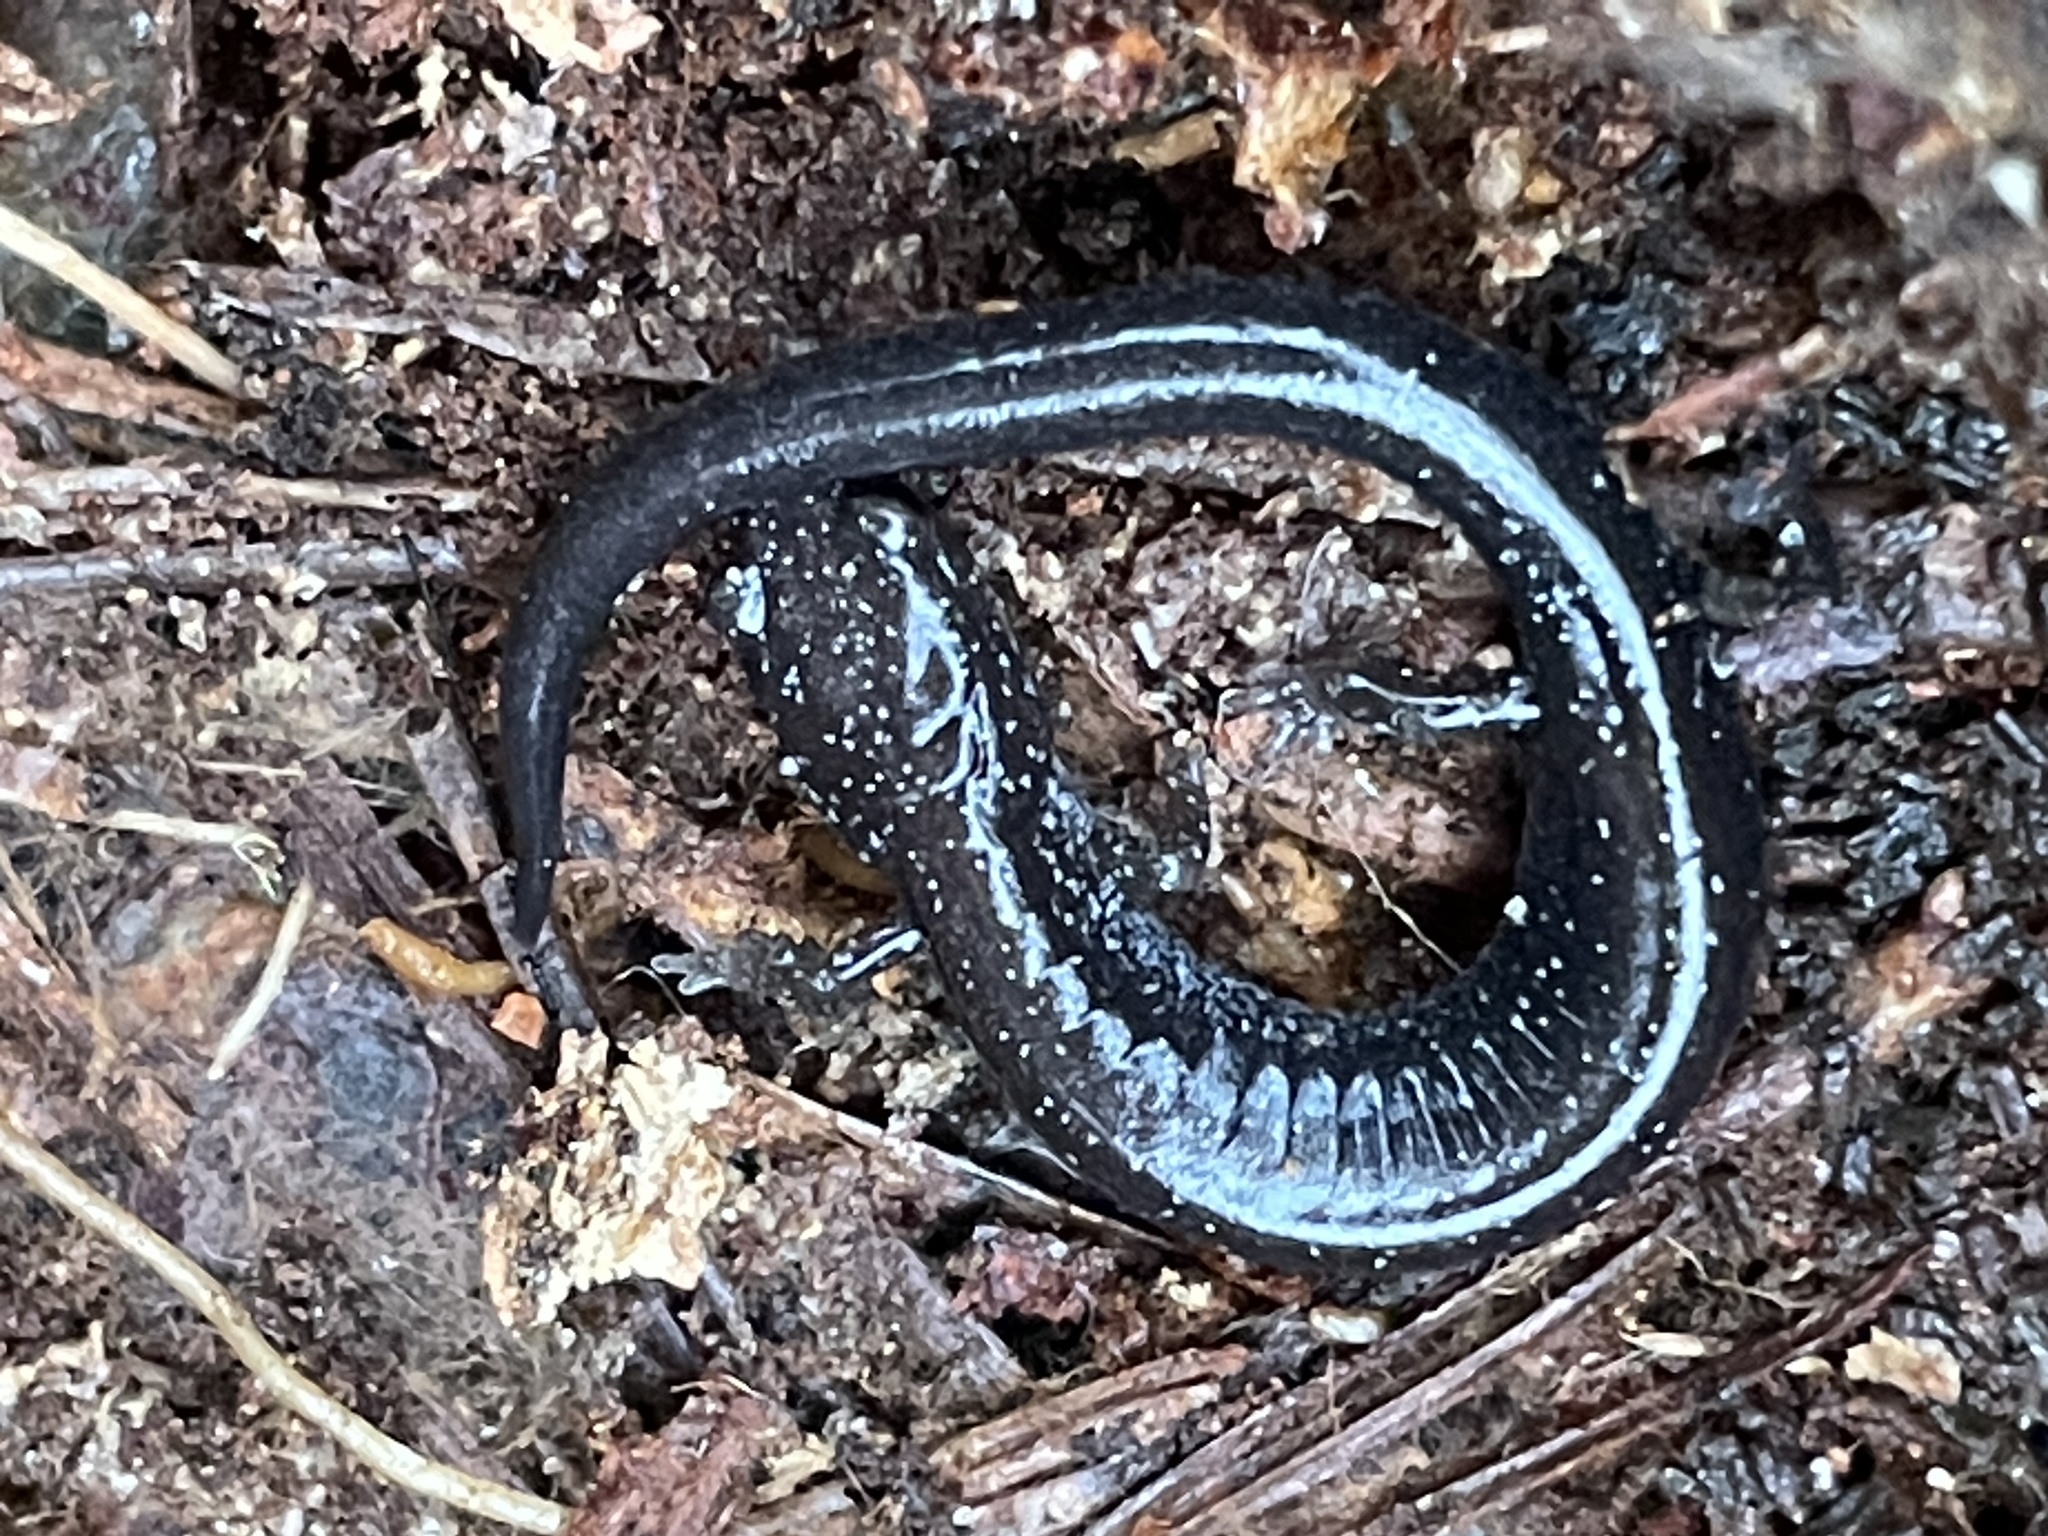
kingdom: Animalia
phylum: Chordata
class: Amphibia
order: Caudata
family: Plethodontidae
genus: Plethodon
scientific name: Plethodon cinereus
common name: Redback salamander
